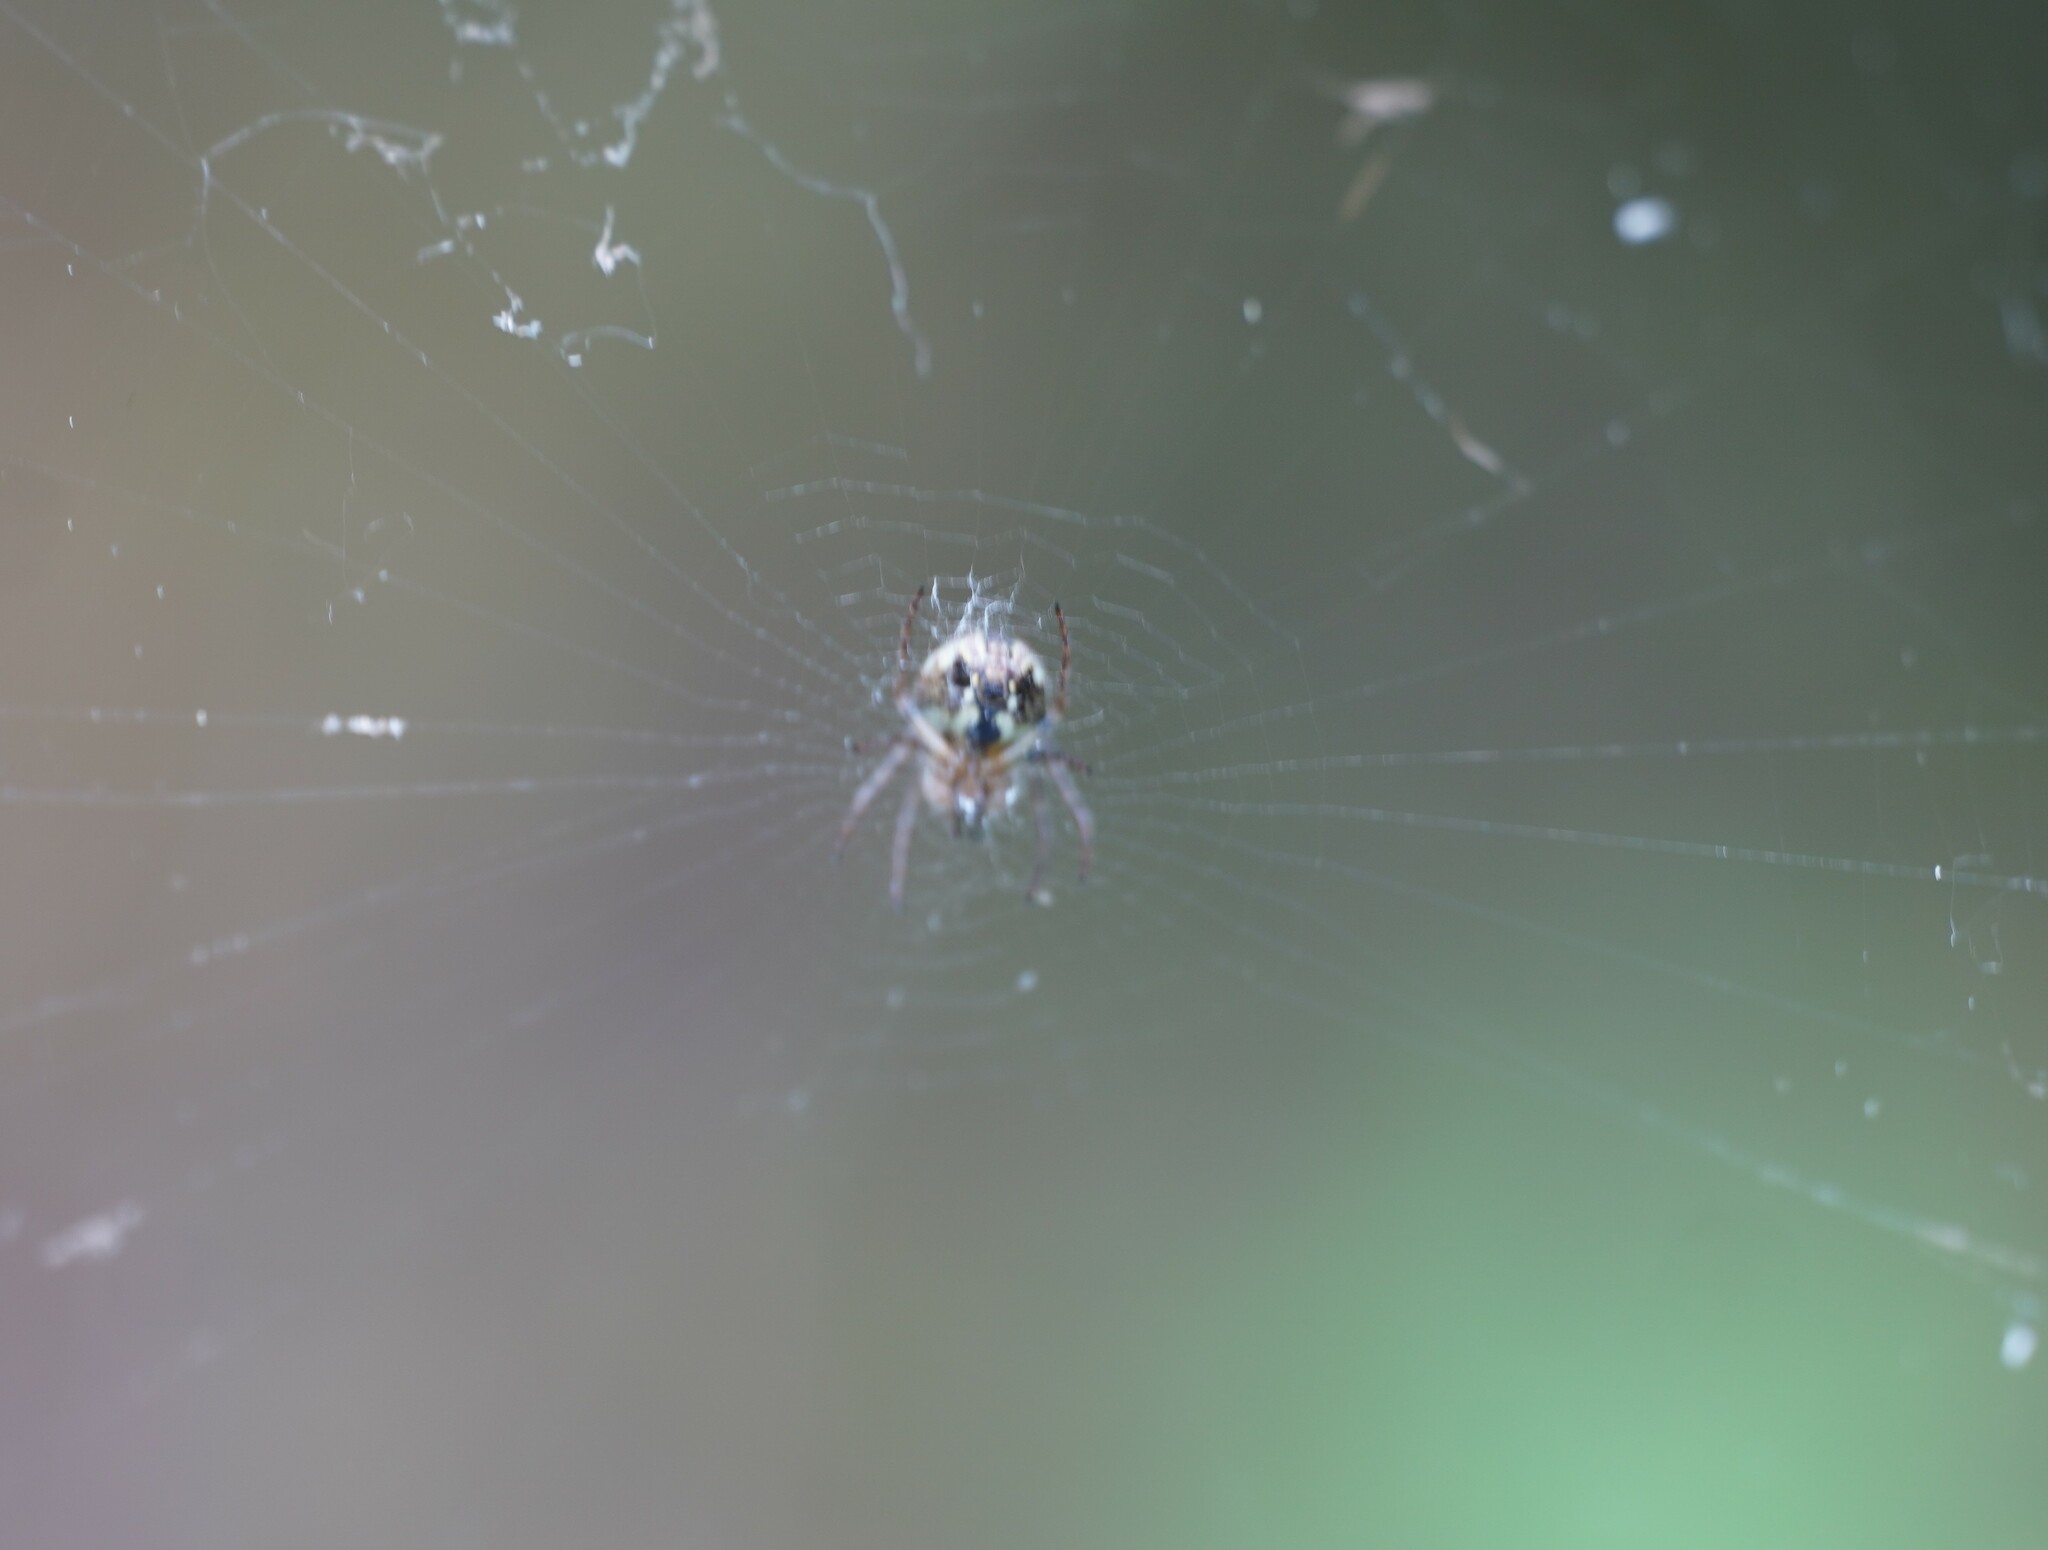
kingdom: Animalia
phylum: Arthropoda
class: Arachnida
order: Araneae
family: Araneidae
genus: Zilla
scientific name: Zilla diodia
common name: Zilla diodia
